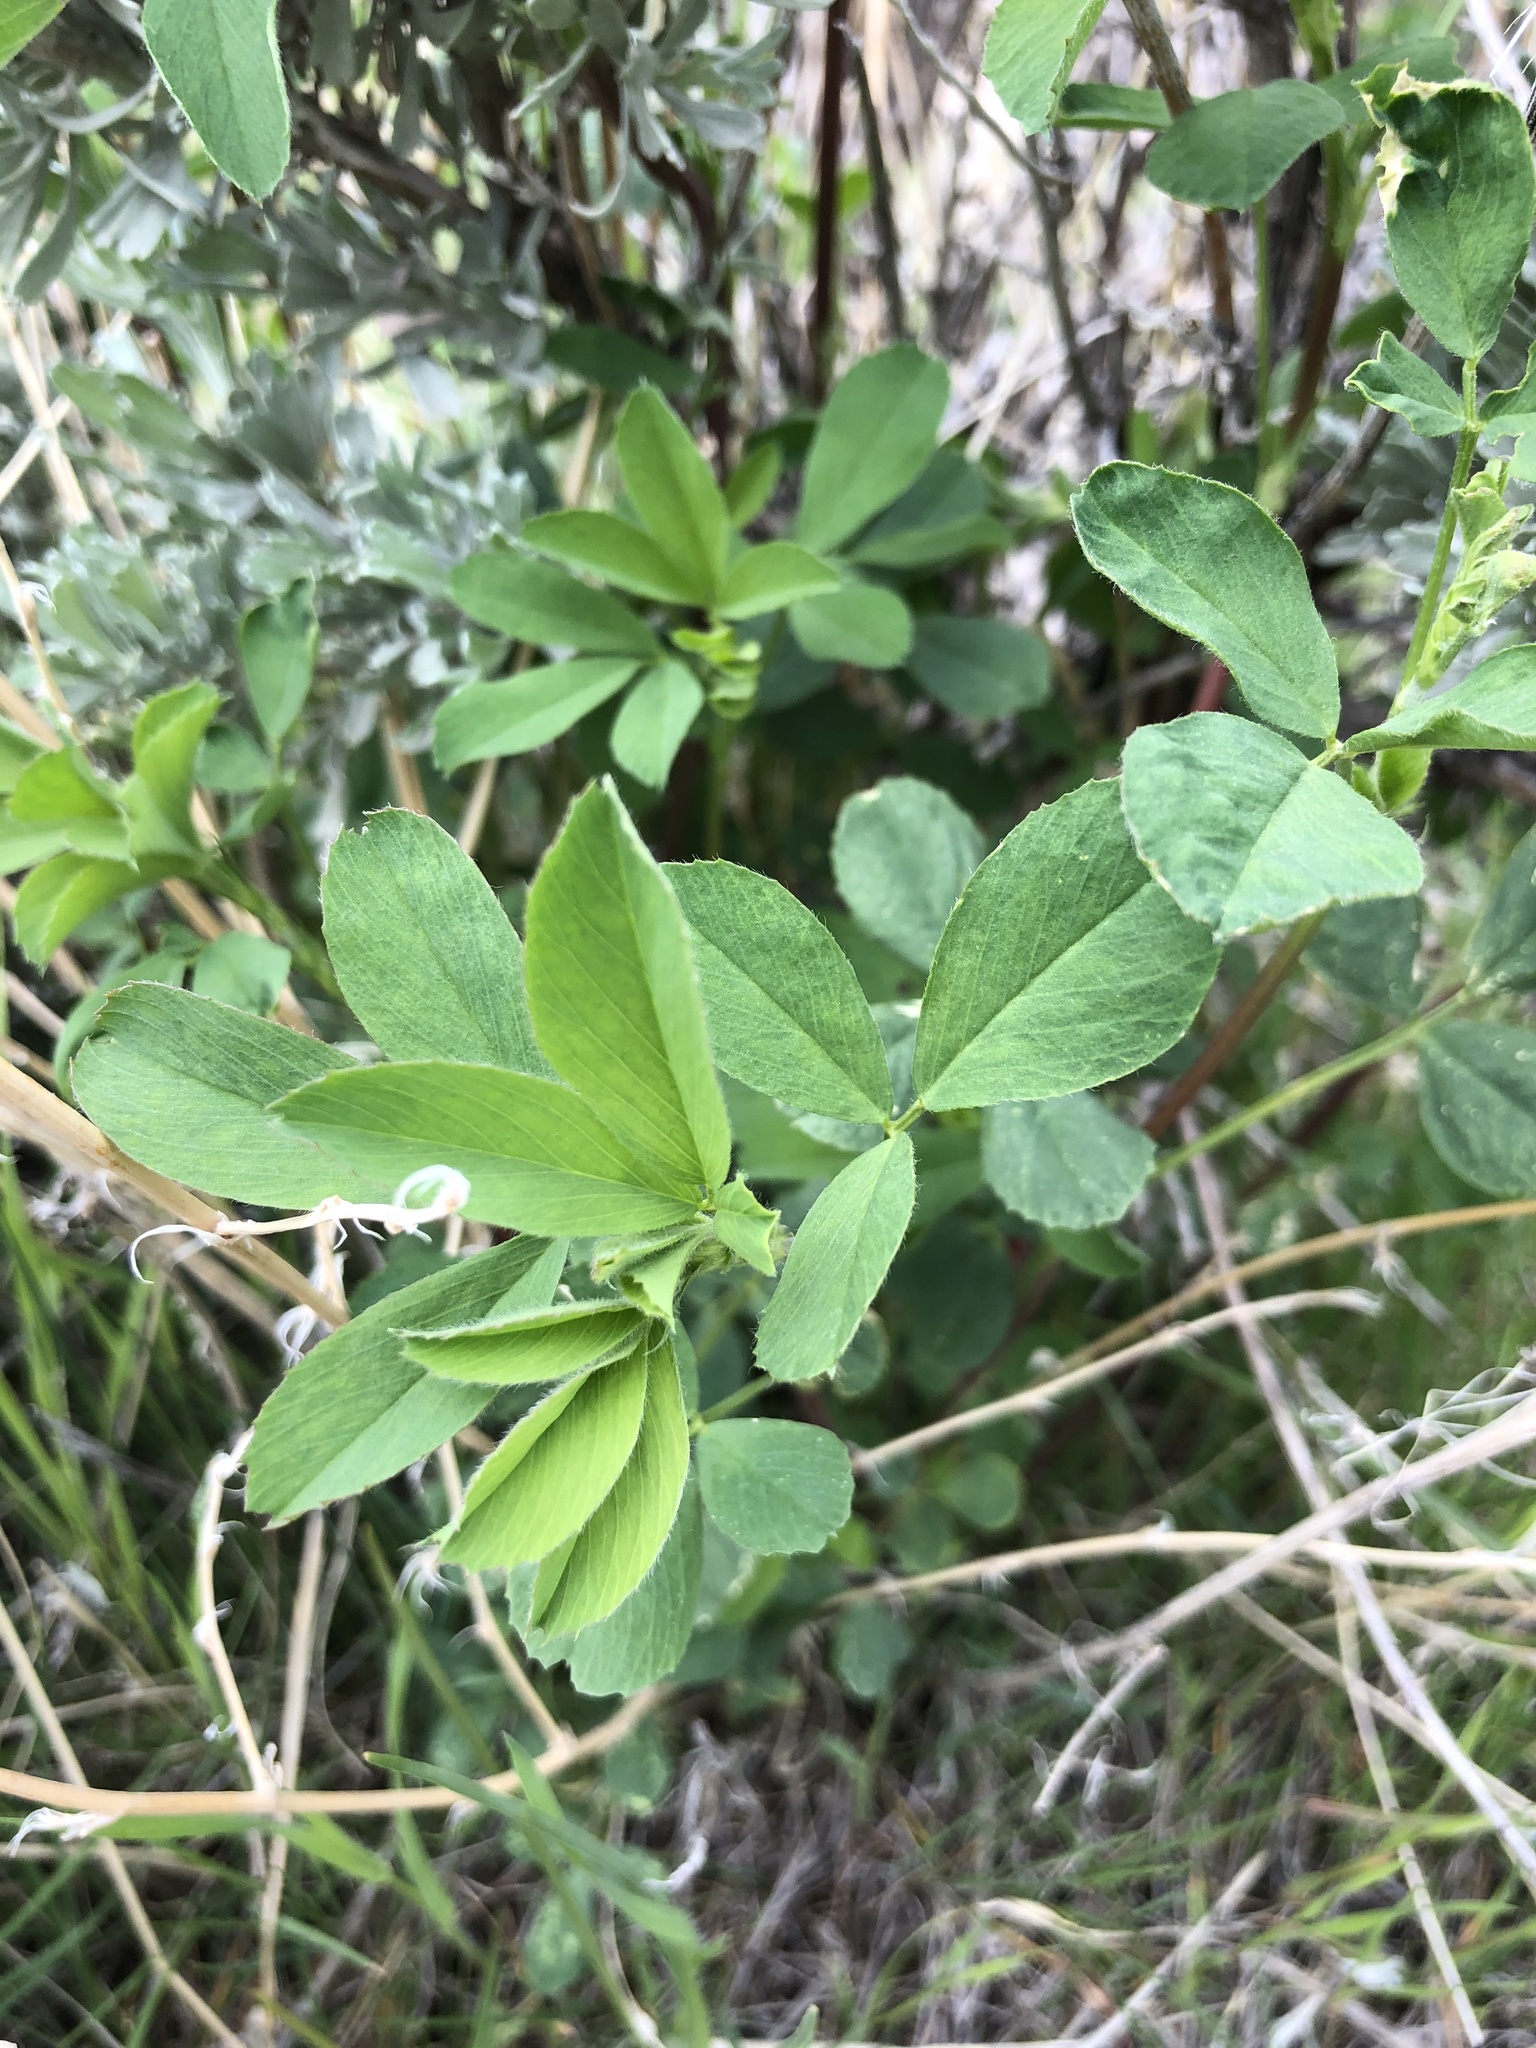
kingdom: Plantae
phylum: Tracheophyta
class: Magnoliopsida
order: Fabales
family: Fabaceae
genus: Medicago
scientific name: Medicago sativa
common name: Alfalfa
